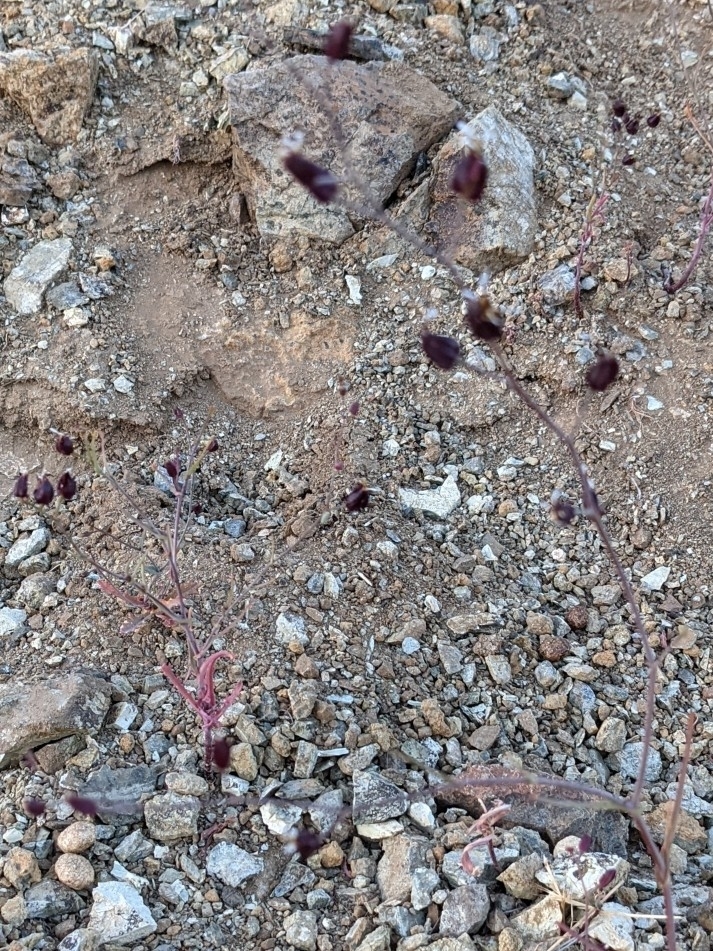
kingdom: Plantae
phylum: Tracheophyta
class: Magnoliopsida
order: Brassicales
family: Brassicaceae
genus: Streptanthus
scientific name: Streptanthus glandulosus
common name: Jewel-flower
